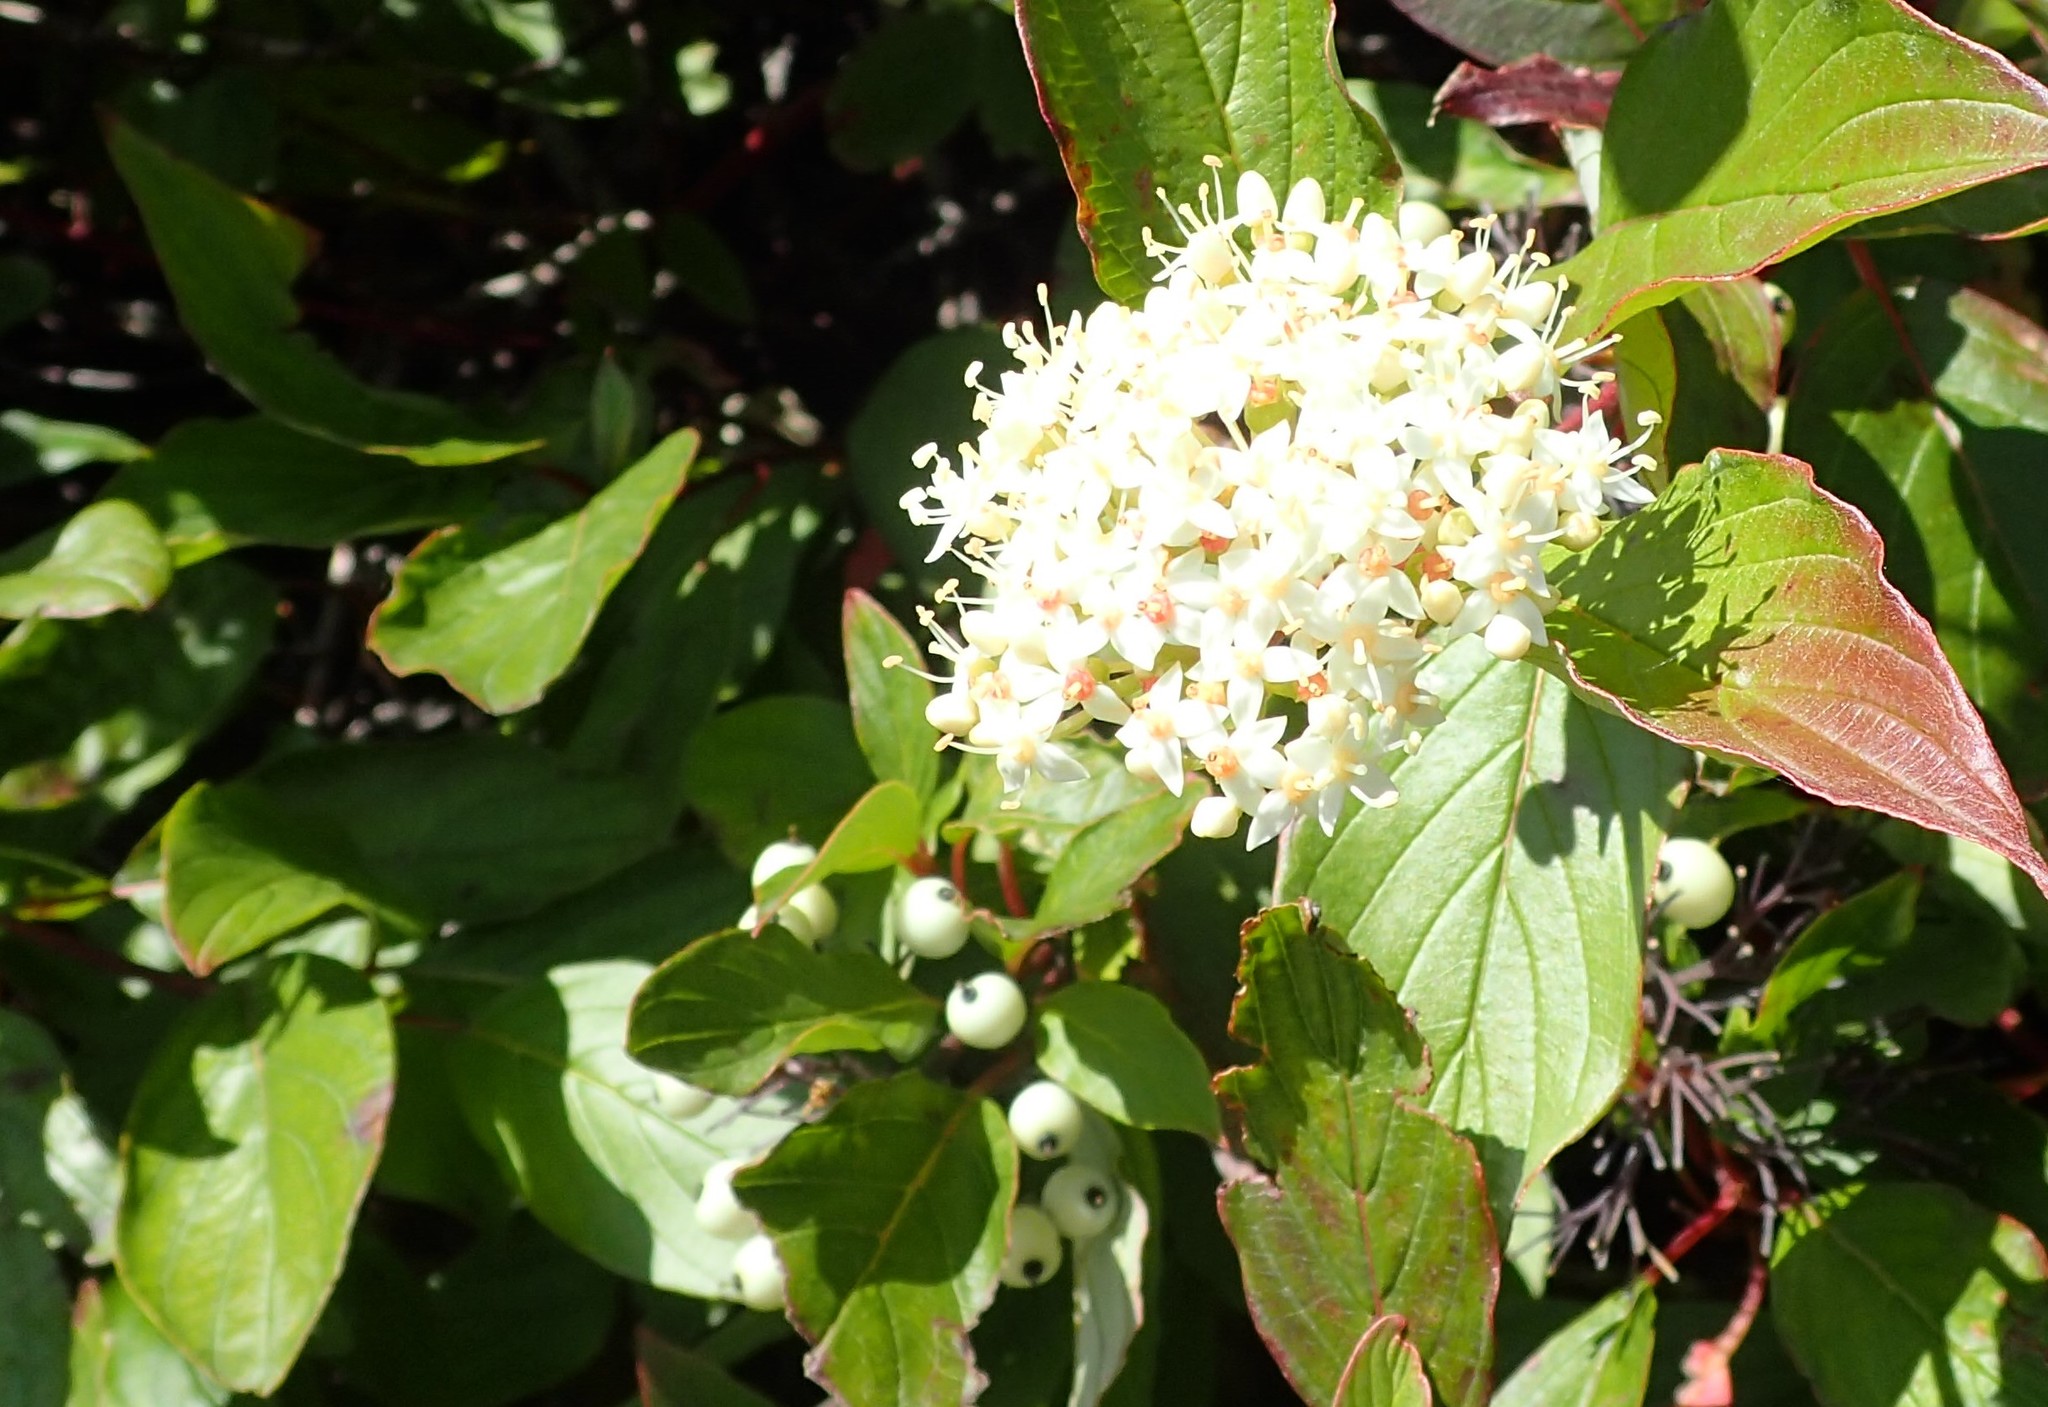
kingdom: Plantae
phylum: Tracheophyta
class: Magnoliopsida
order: Cornales
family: Cornaceae
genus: Cornus
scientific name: Cornus sericea
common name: Red-osier dogwood
